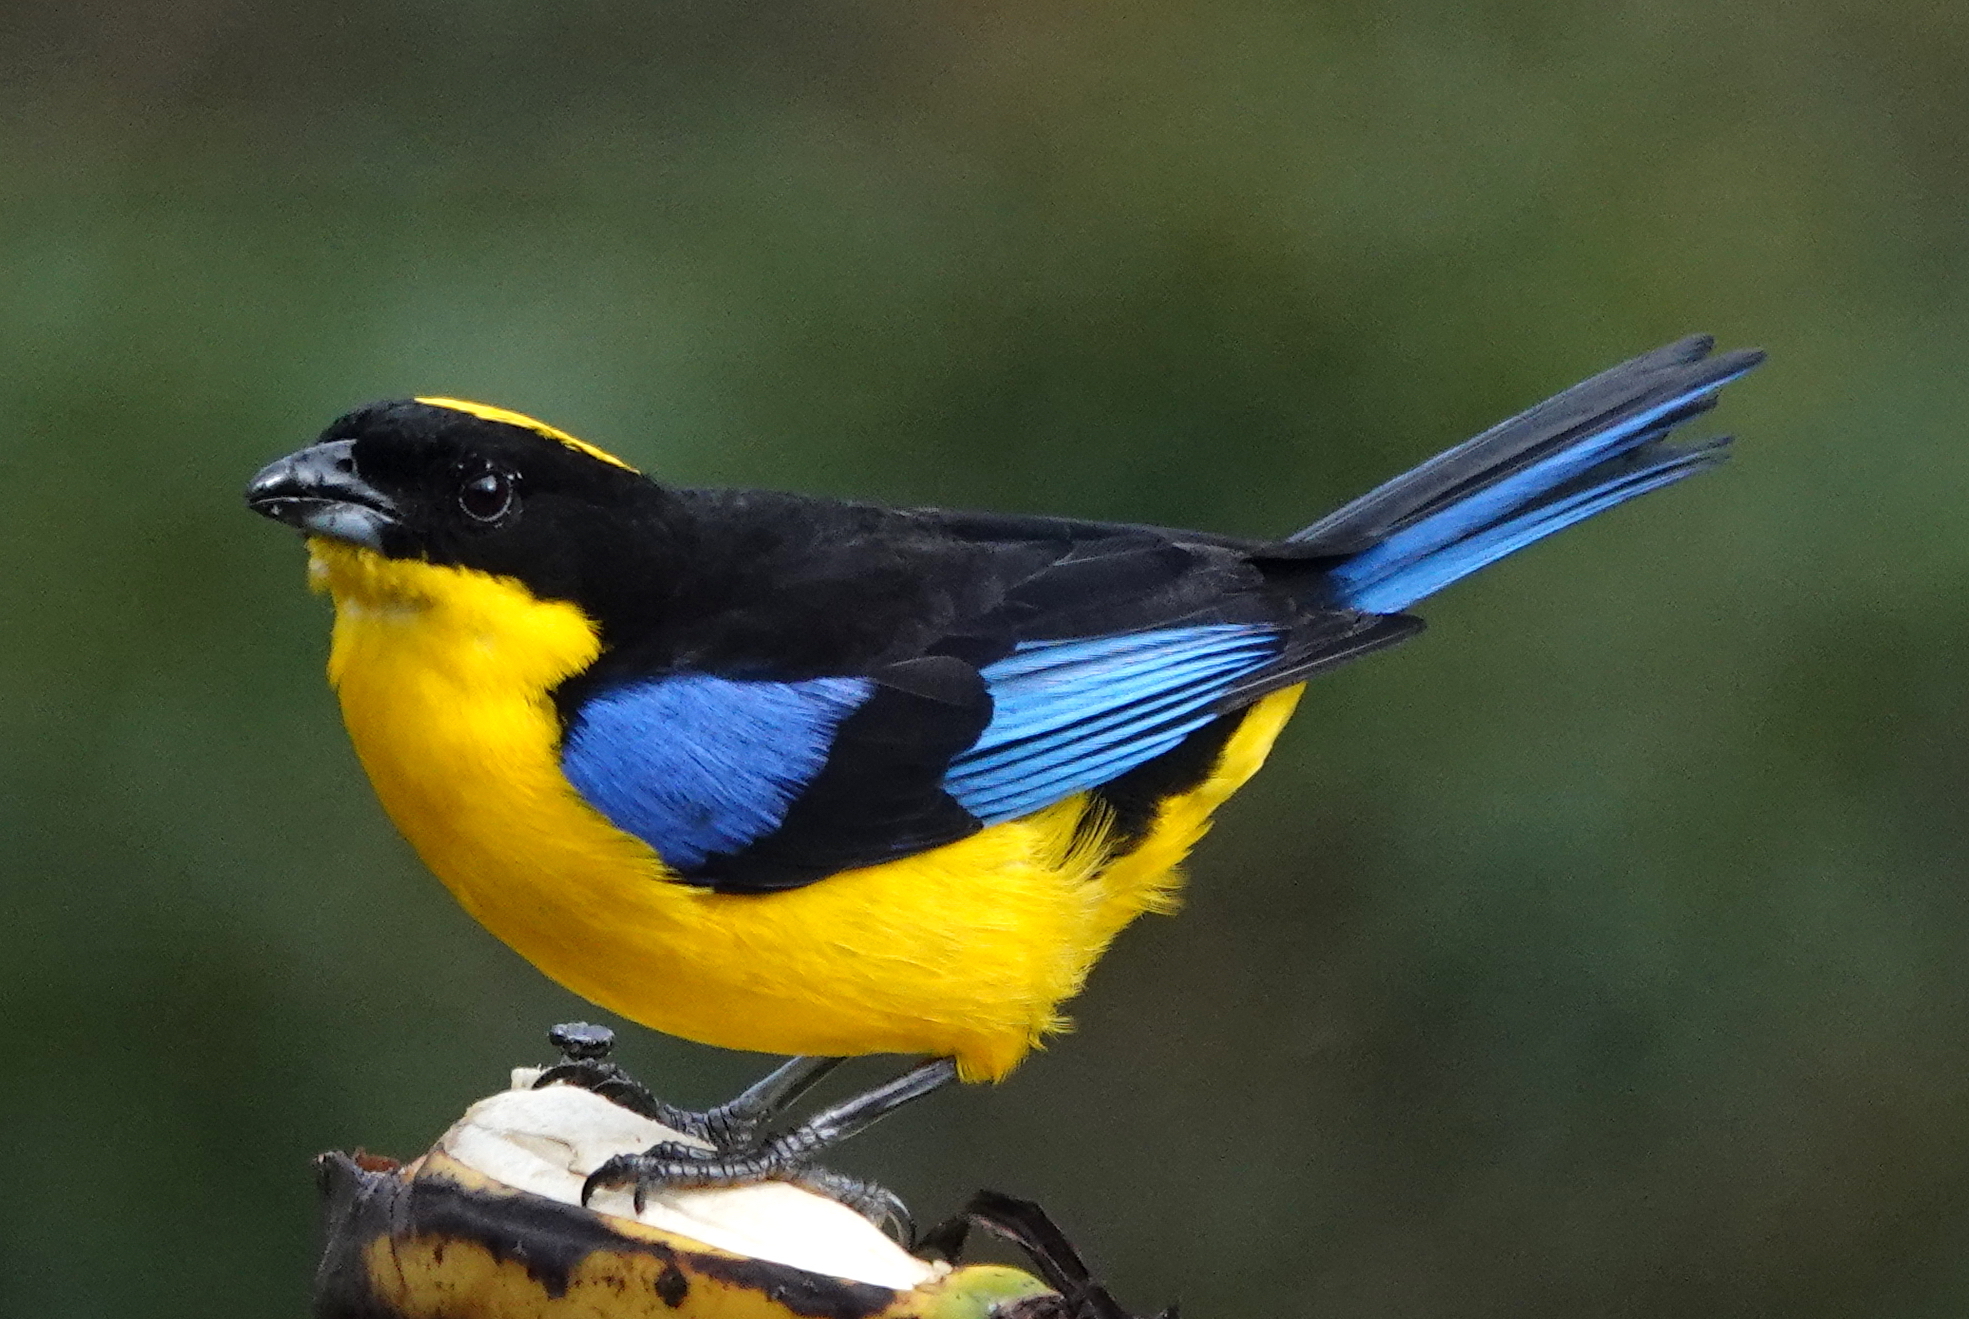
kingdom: Animalia
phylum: Chordata
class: Aves
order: Passeriformes
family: Thraupidae
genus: Anisognathus
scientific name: Anisognathus somptuosus
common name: Blue-winged mountain-tanager
